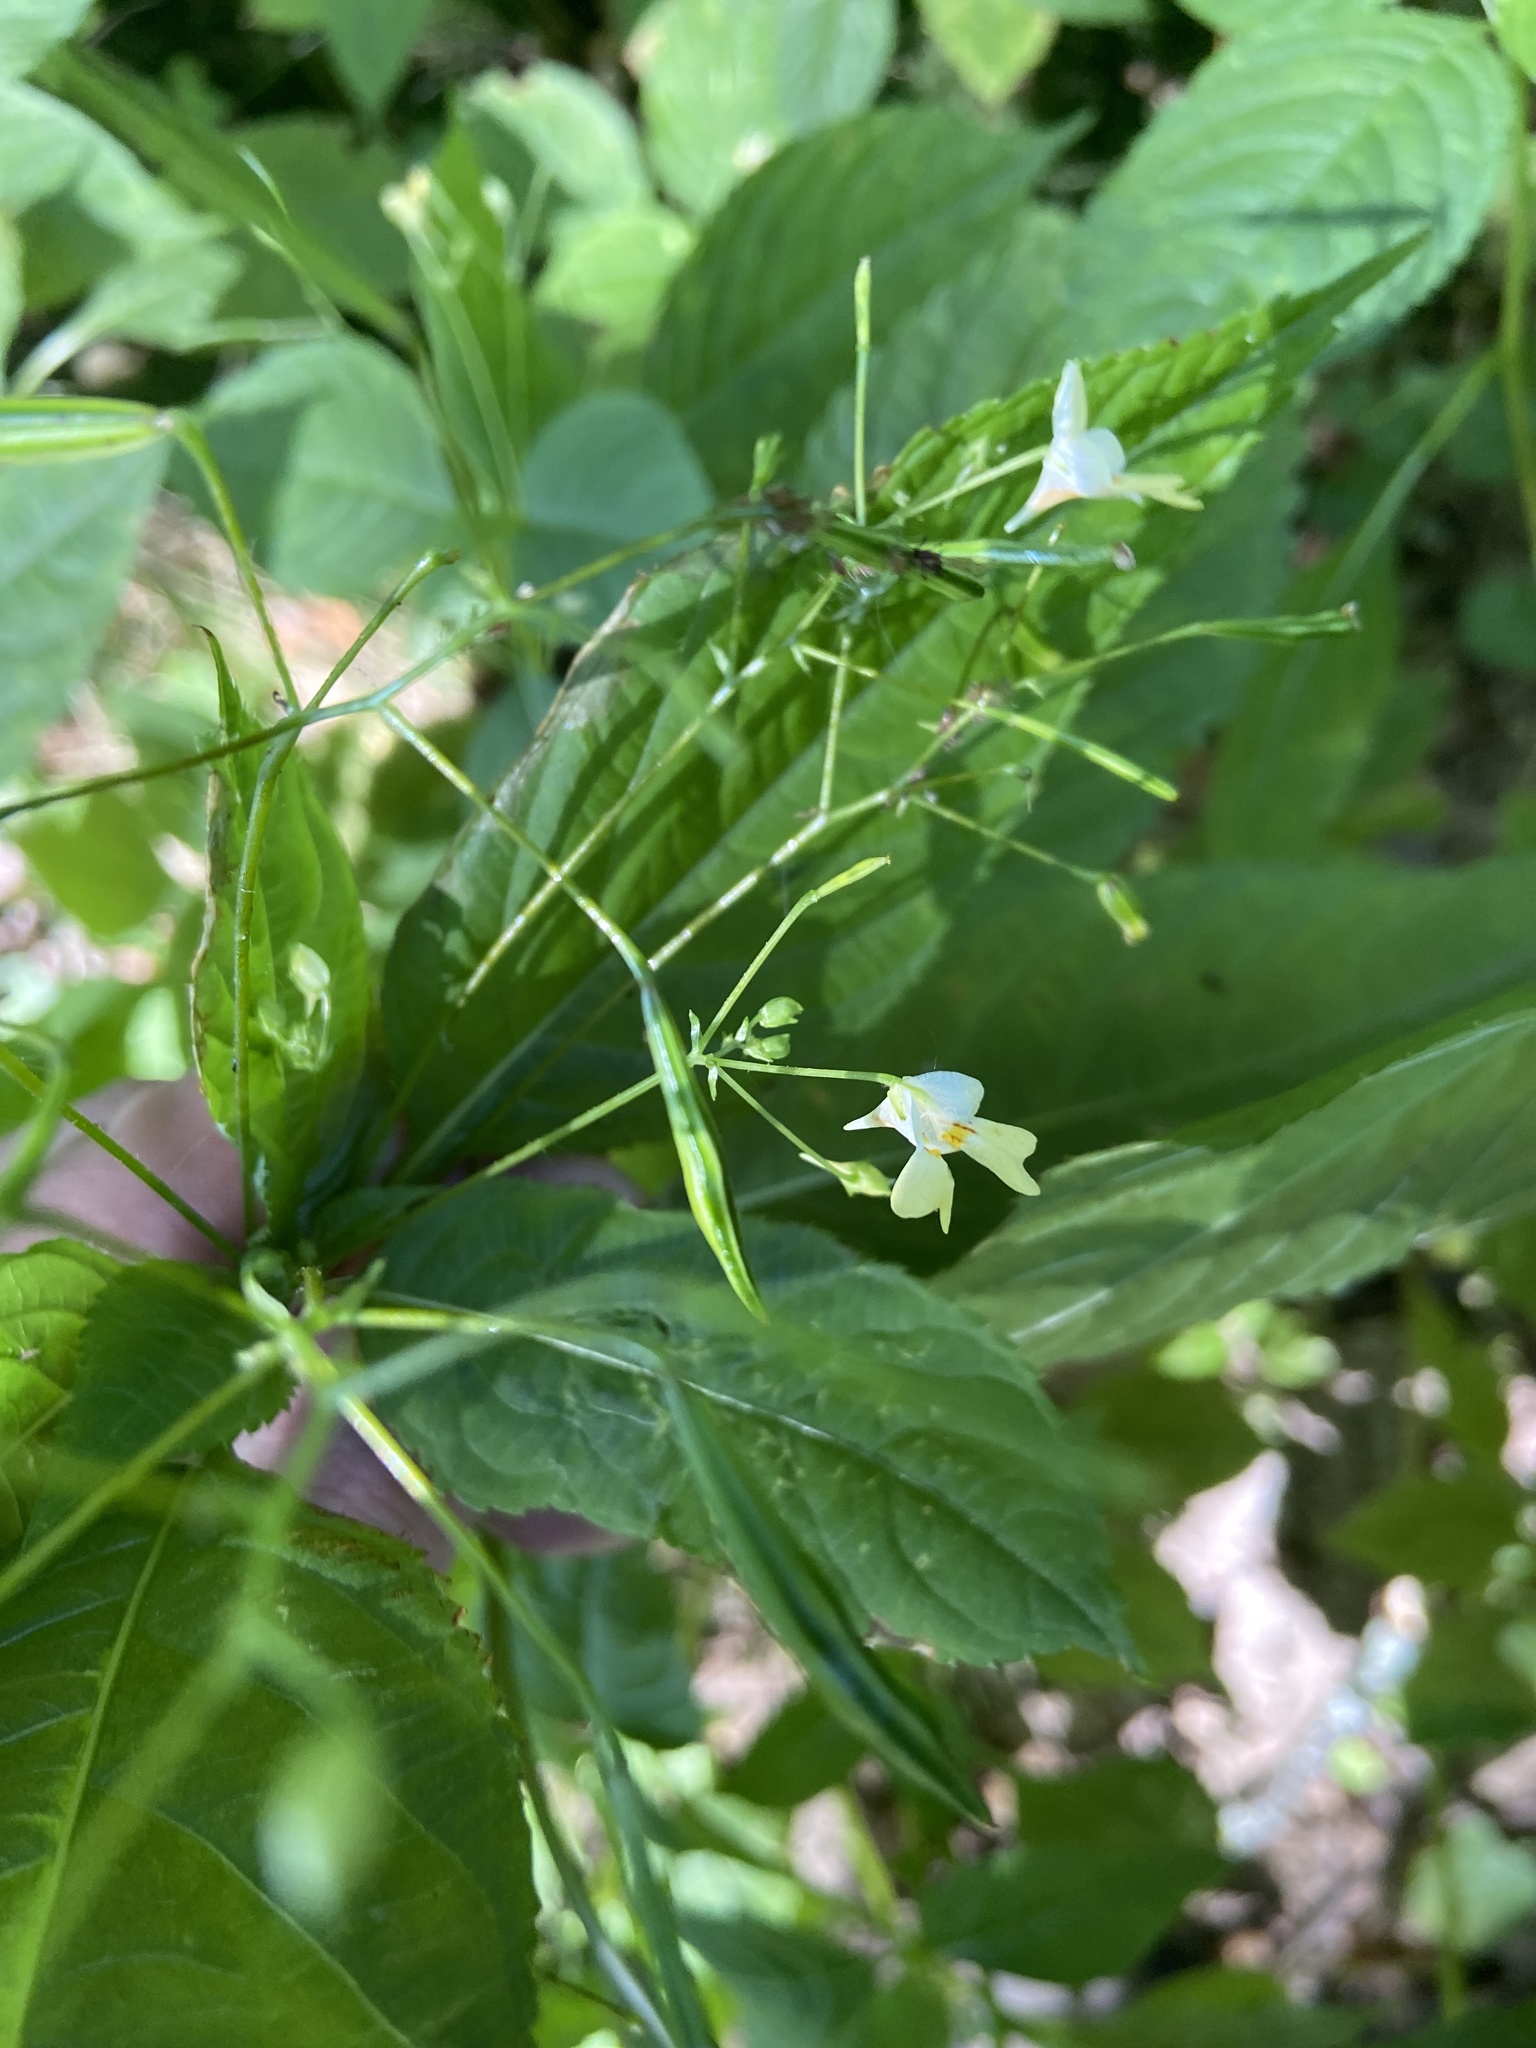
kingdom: Plantae
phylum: Tracheophyta
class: Magnoliopsida
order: Ericales
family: Balsaminaceae
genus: Impatiens
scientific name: Impatiens parviflora
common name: Small balsam
